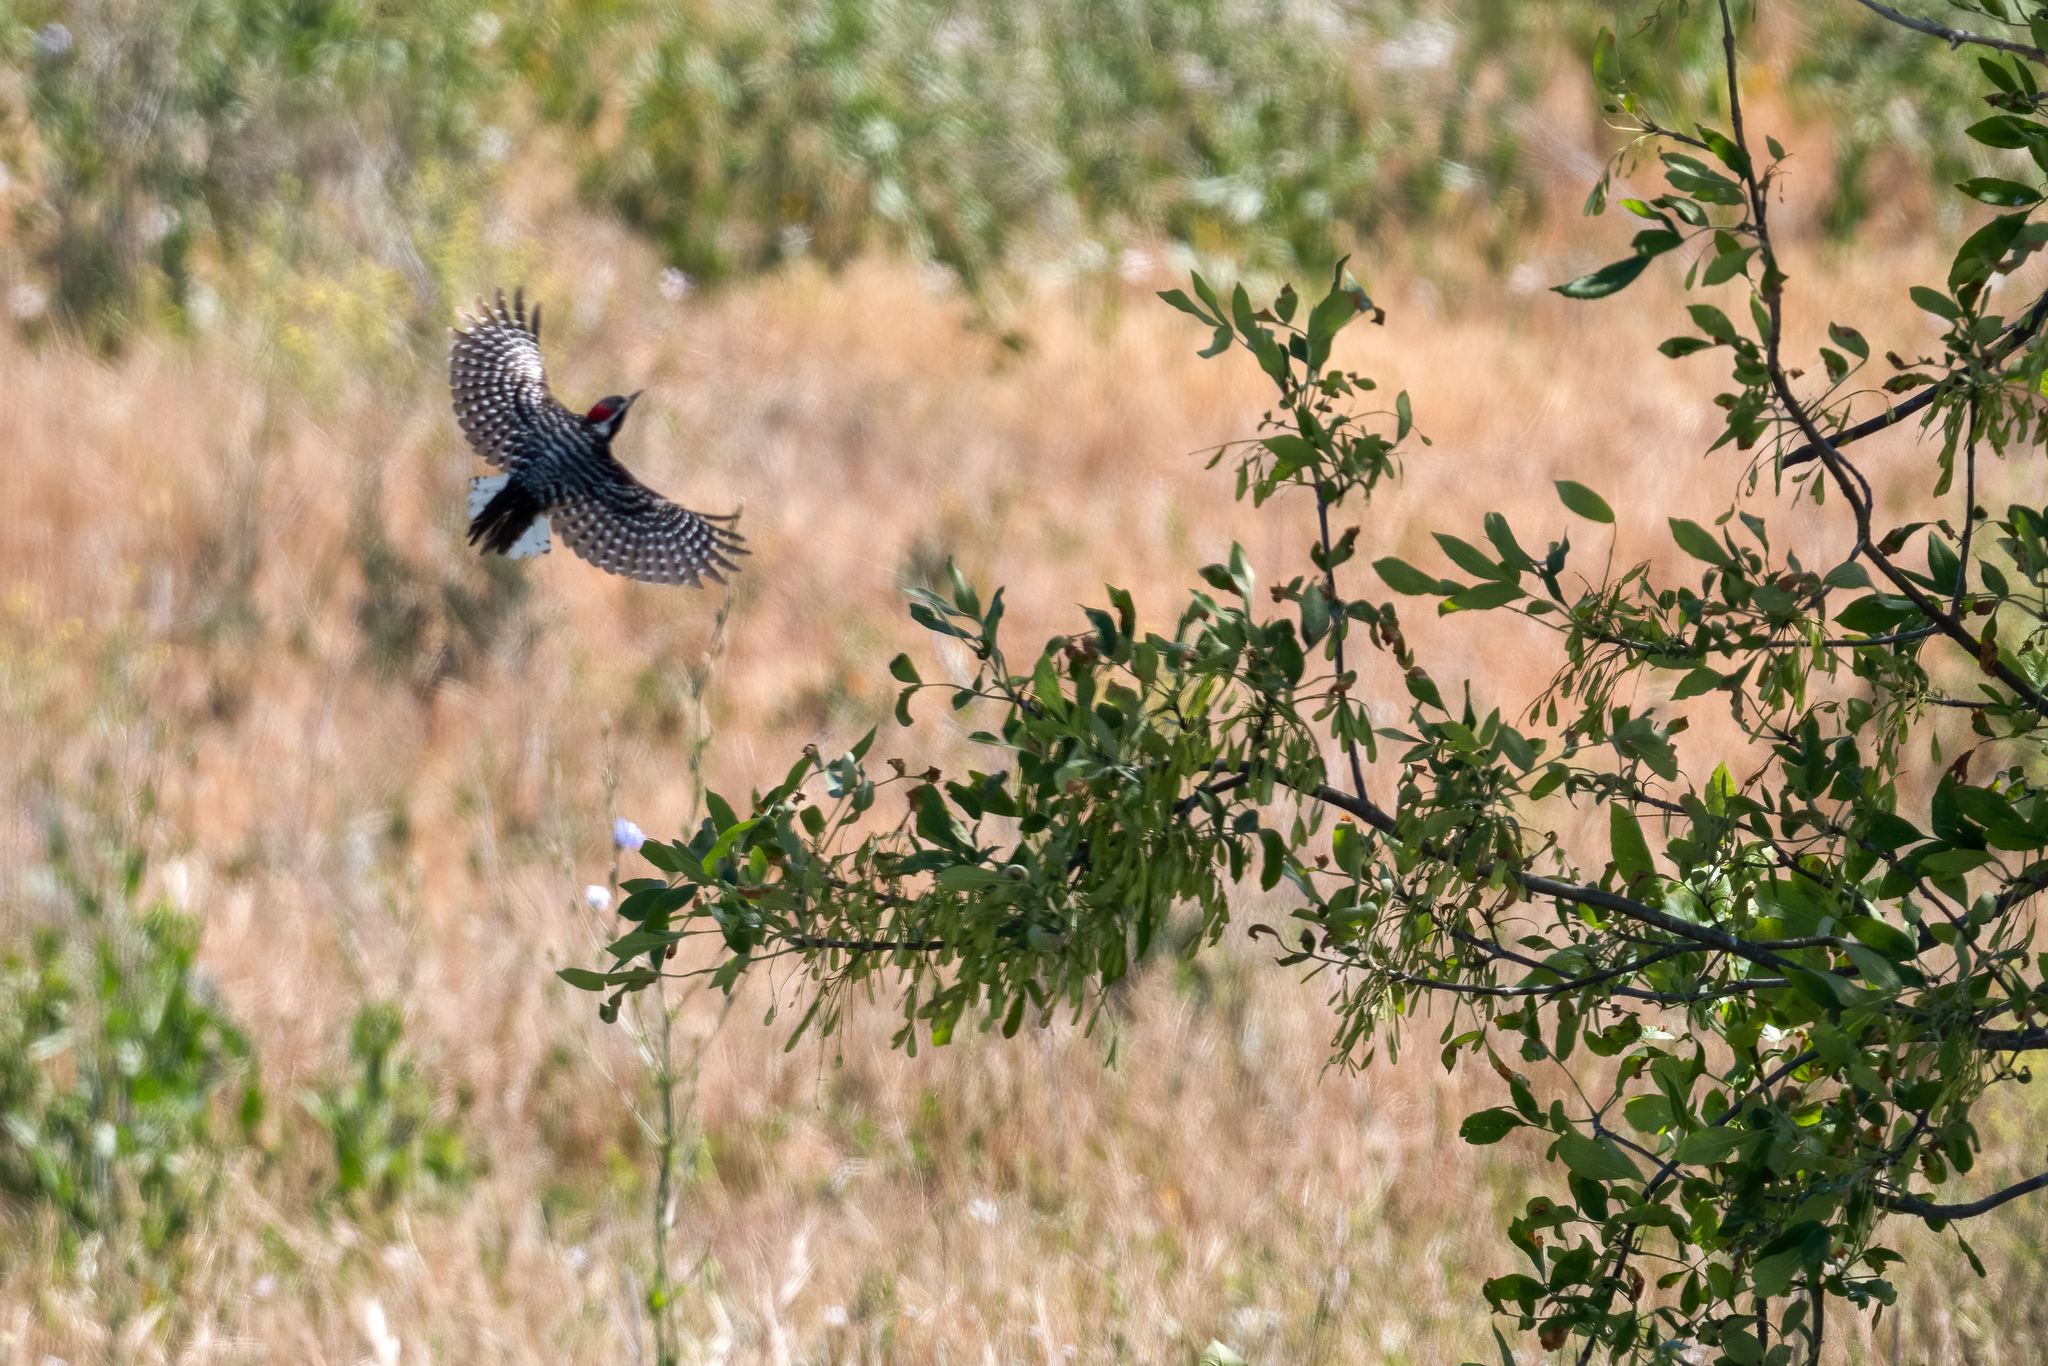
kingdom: Animalia
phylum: Chordata
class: Aves
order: Piciformes
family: Picidae
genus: Dryobates
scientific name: Dryobates nuttallii
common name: Nuttall's woodpecker
